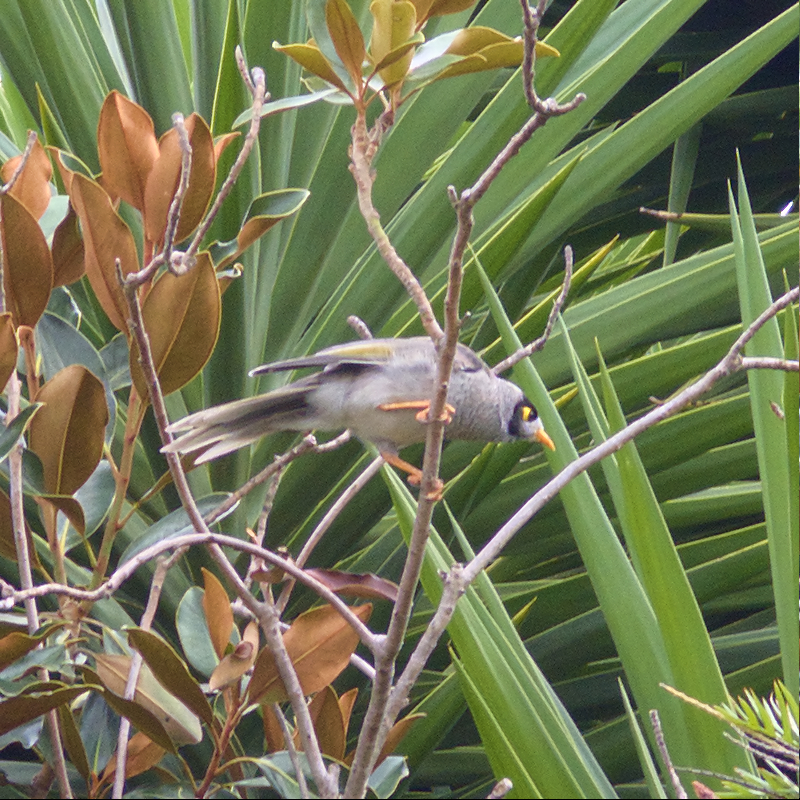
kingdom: Animalia
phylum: Chordata
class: Aves
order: Passeriformes
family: Meliphagidae
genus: Manorina
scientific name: Manorina melanocephala
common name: Noisy miner
